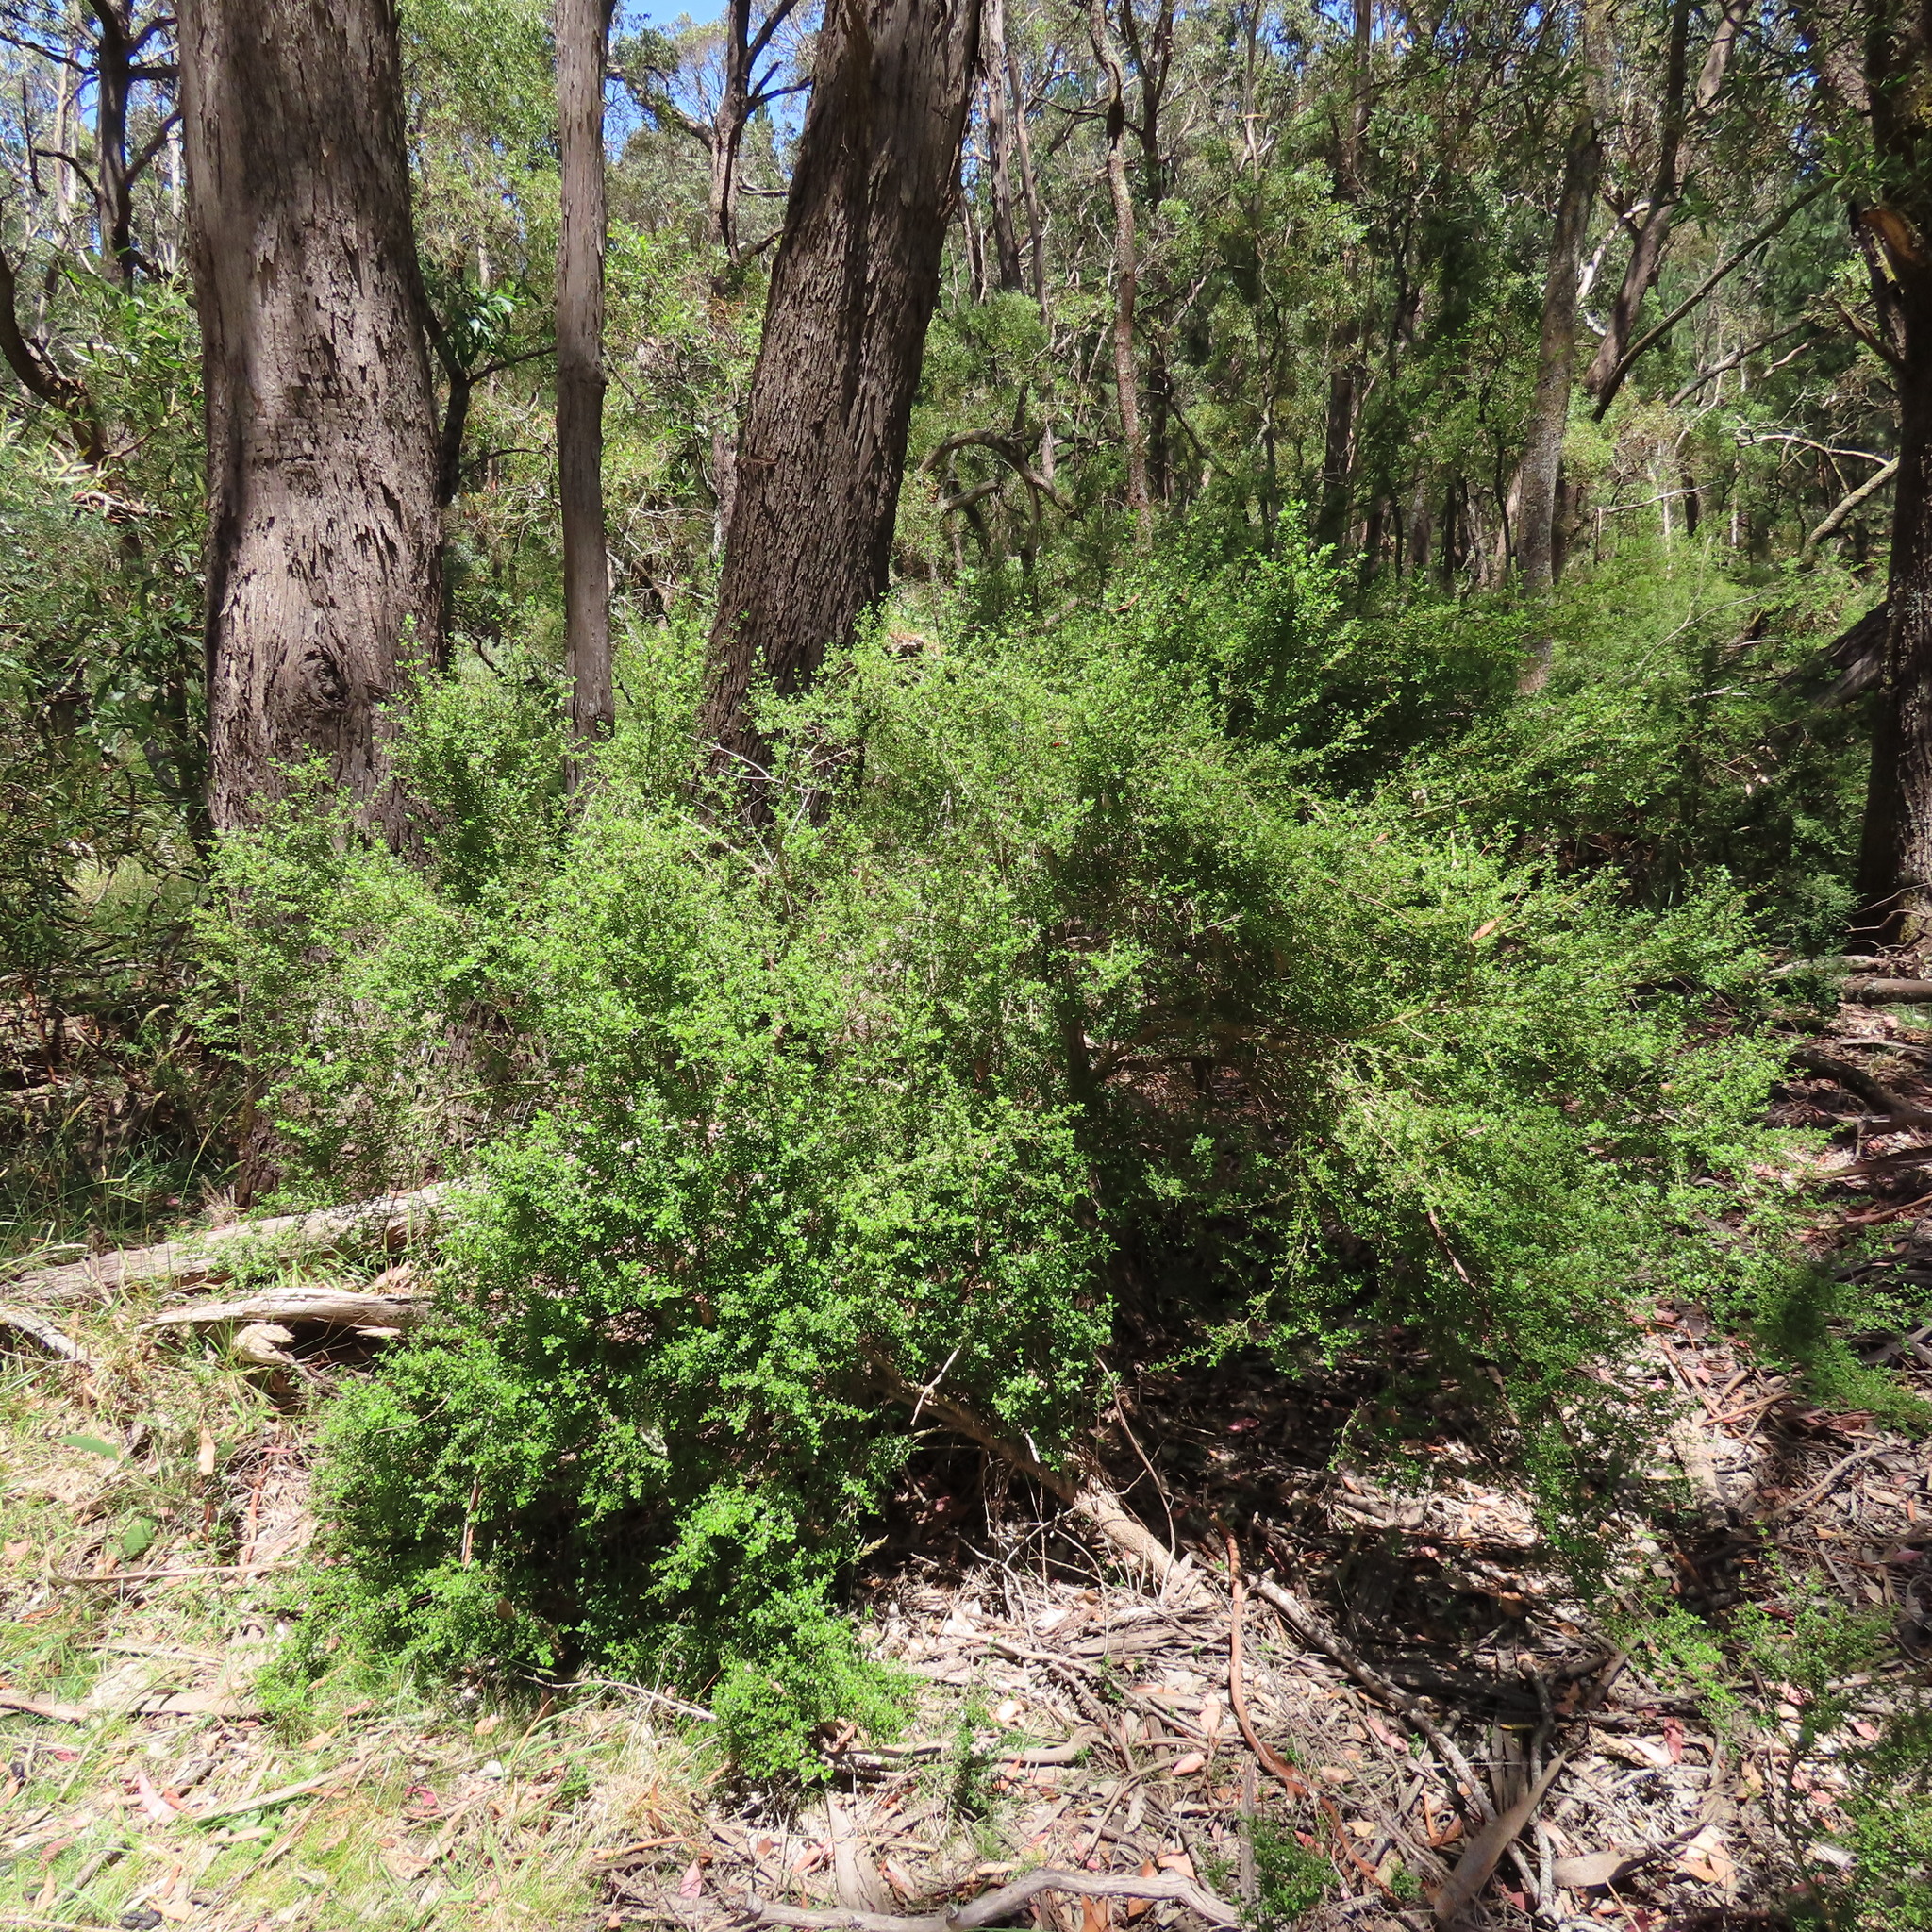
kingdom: Plantae
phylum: Tracheophyta
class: Magnoliopsida
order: Gentianales
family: Rubiaceae
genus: Coprosma
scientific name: Coprosma quadrifida
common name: Prickly currantbush
